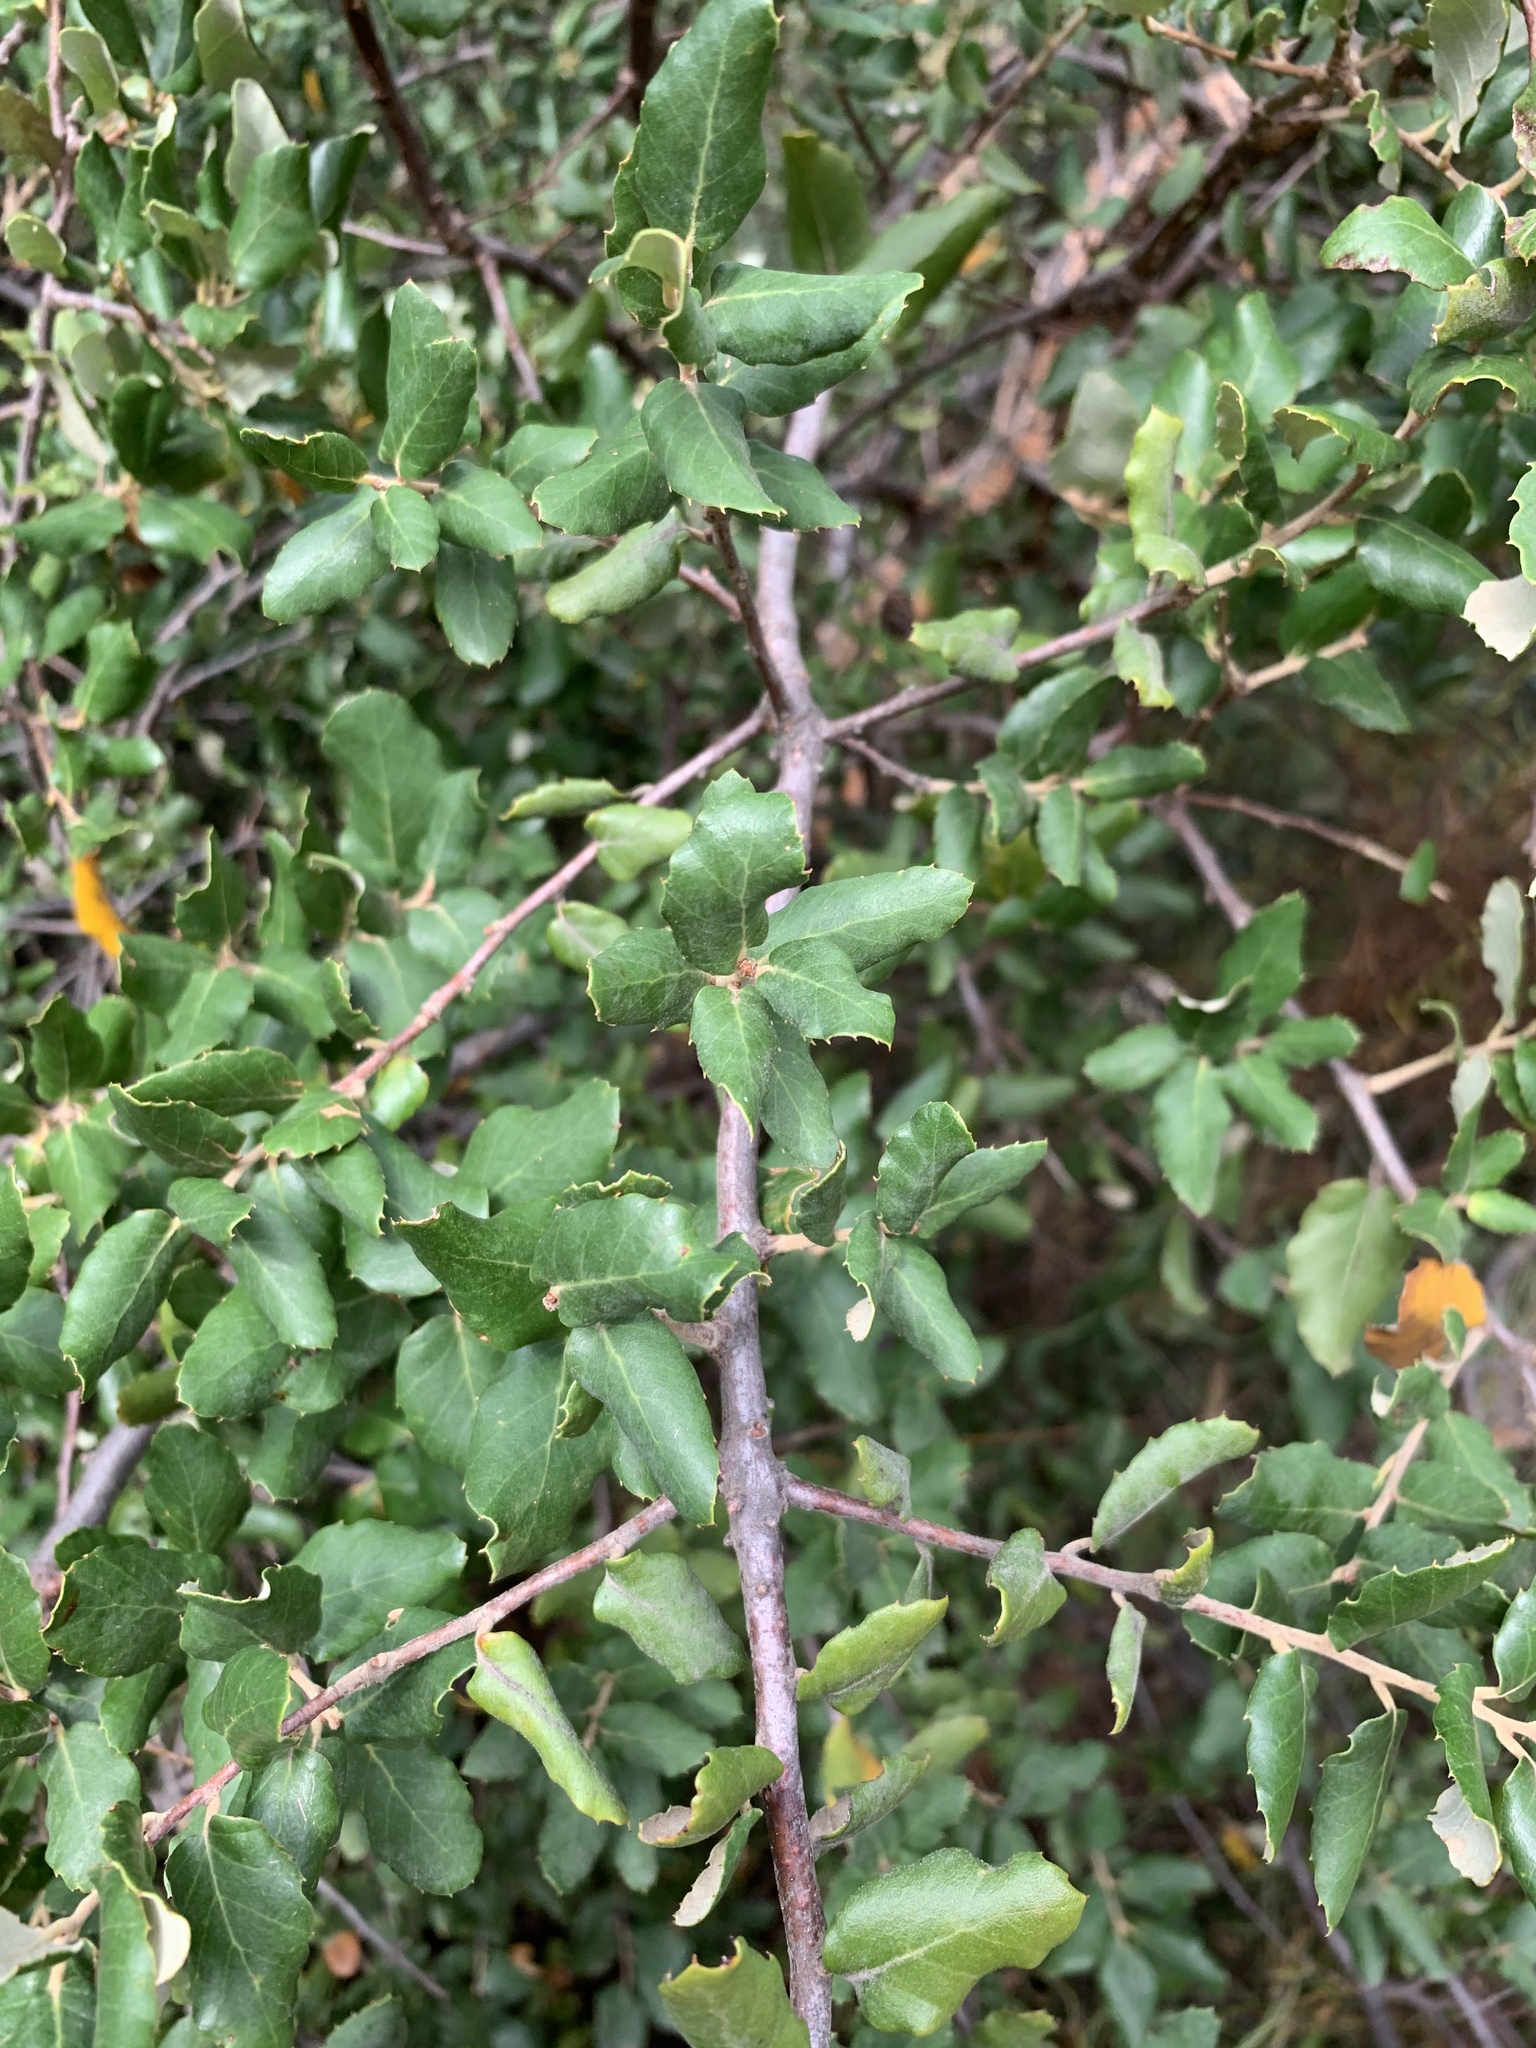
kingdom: Plantae
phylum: Tracheophyta
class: Magnoliopsida
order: Fagales
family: Fagaceae
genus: Quercus
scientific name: Quercus suber
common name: Cork oak
